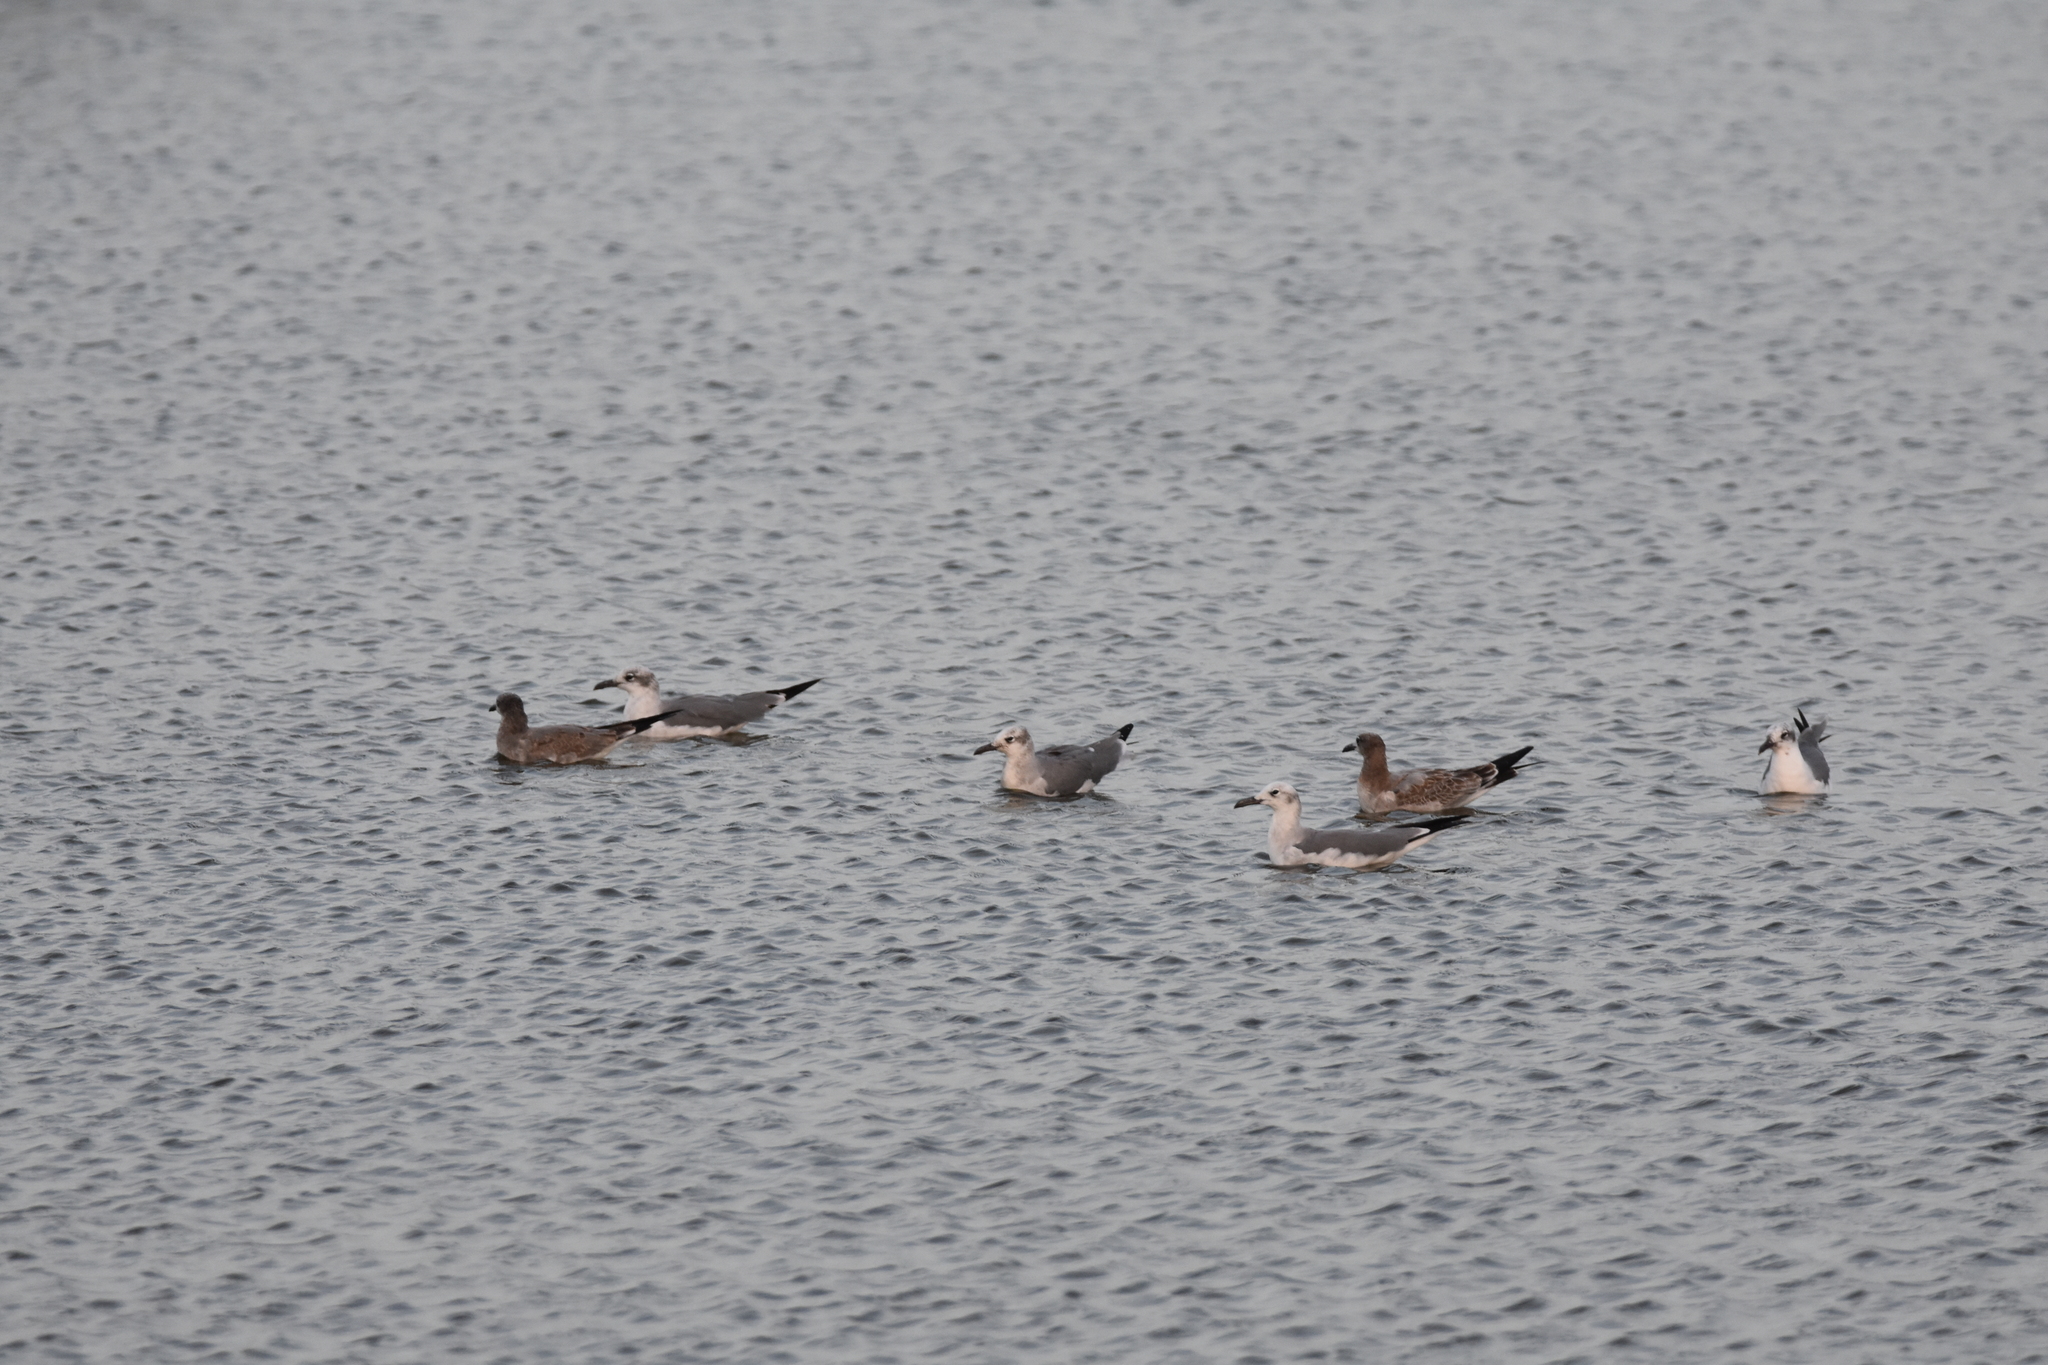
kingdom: Animalia
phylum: Chordata
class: Aves
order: Charadriiformes
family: Laridae
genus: Leucophaeus
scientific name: Leucophaeus atricilla
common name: Laughing gull
